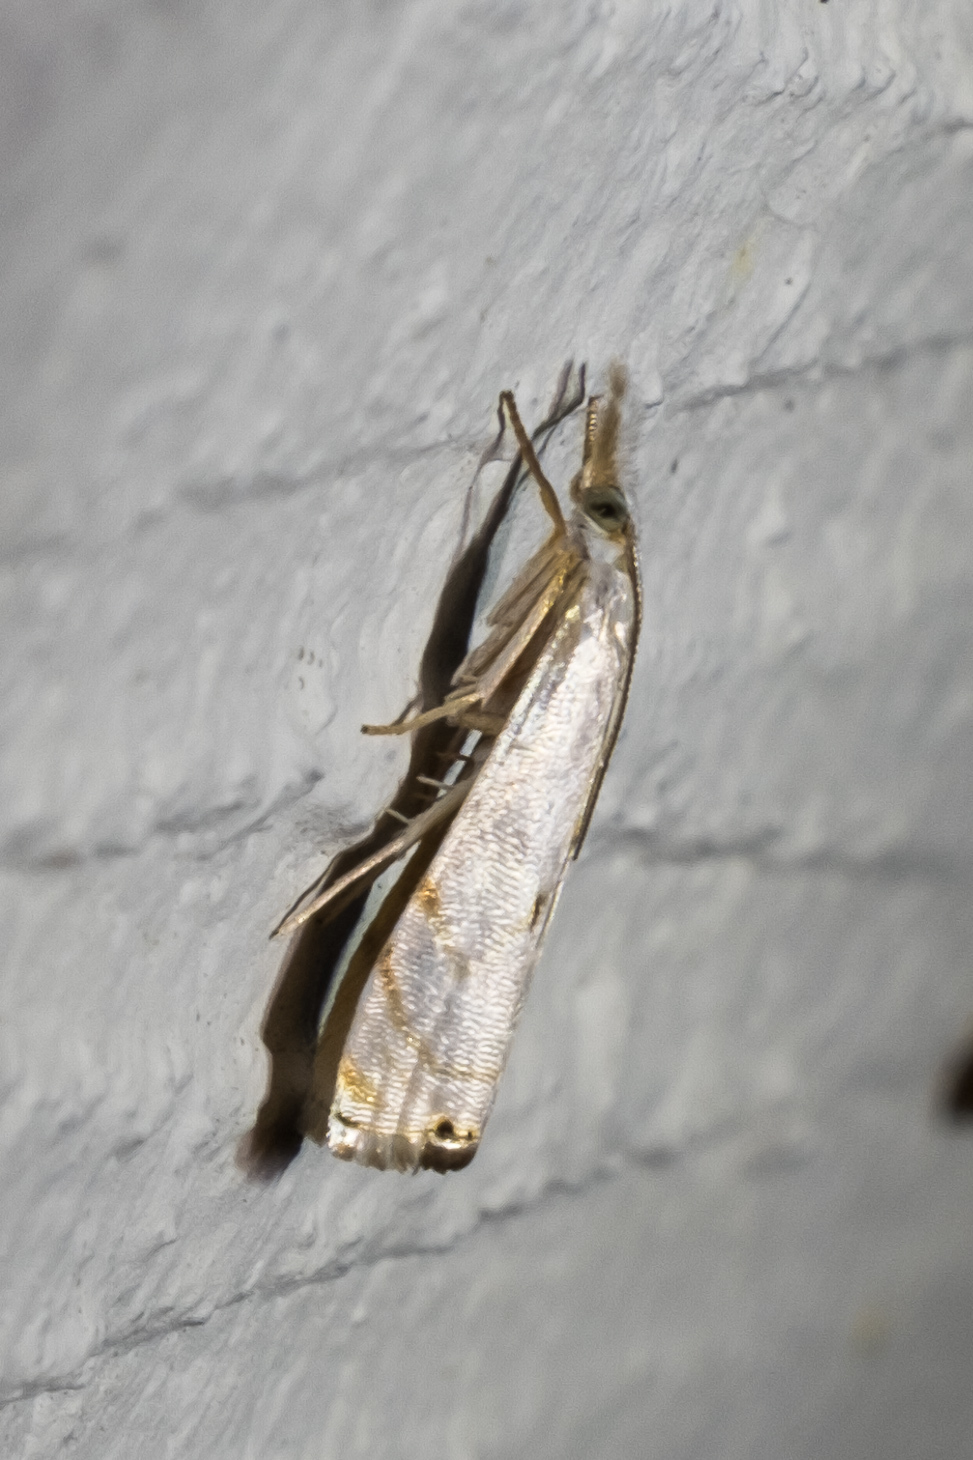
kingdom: Animalia
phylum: Arthropoda
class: Insecta
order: Lepidoptera
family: Crambidae
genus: Microcrambus
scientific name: Microcrambus biguttellus
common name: Gold-stripe grass-veneer moth
